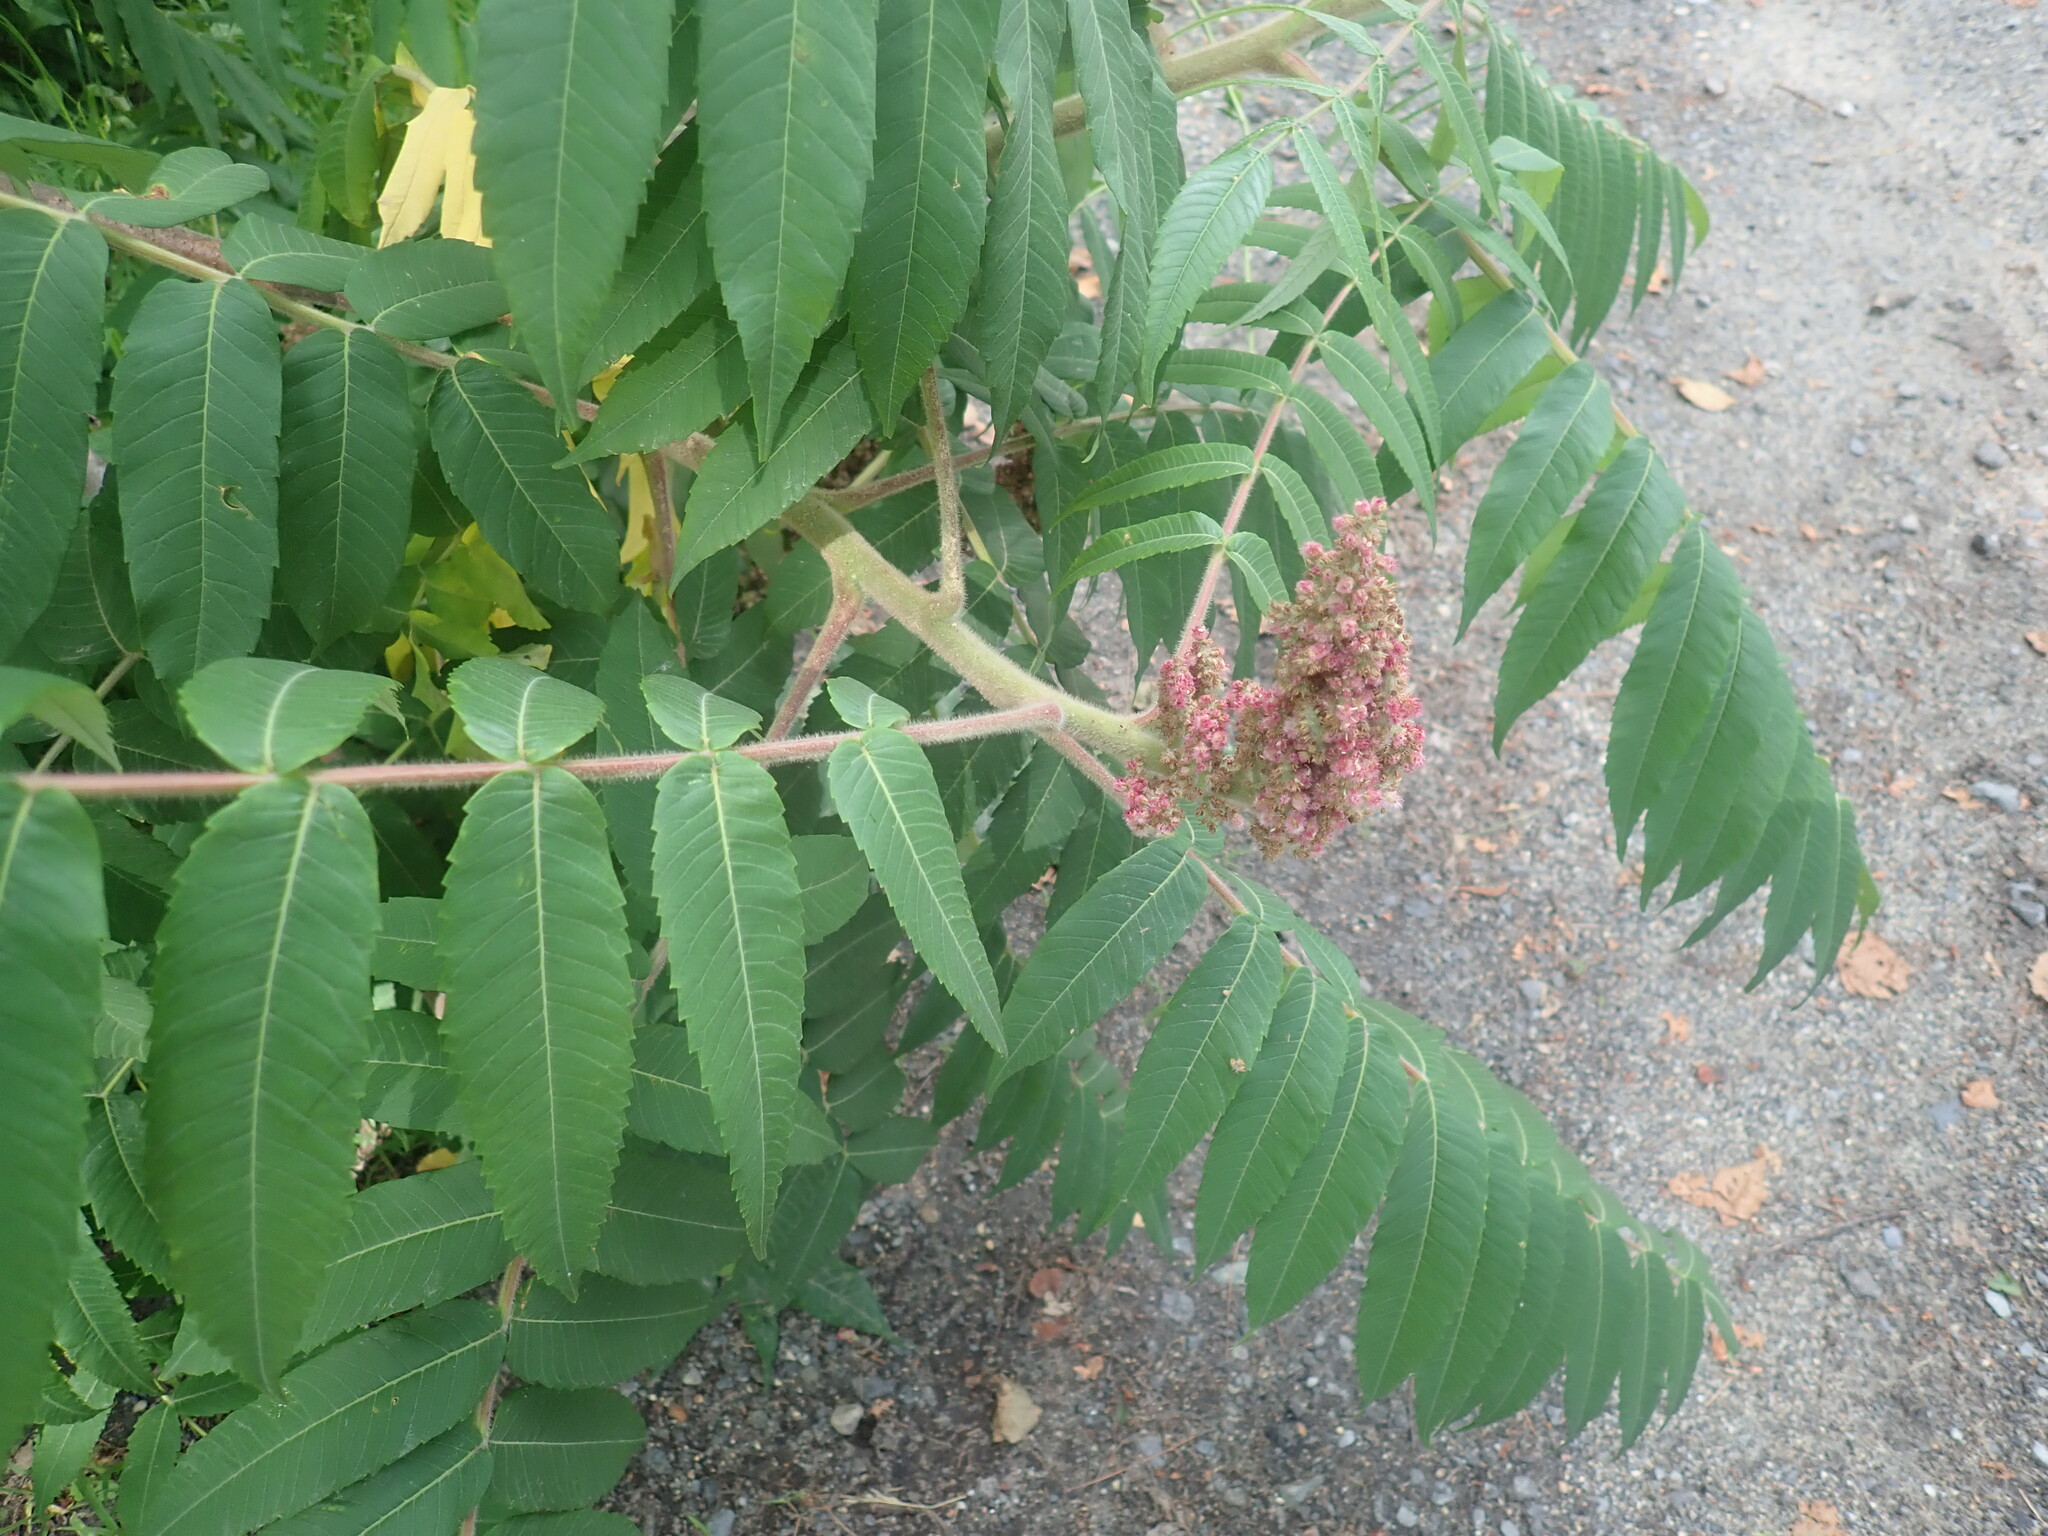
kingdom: Plantae
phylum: Tracheophyta
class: Magnoliopsida
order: Sapindales
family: Anacardiaceae
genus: Rhus
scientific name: Rhus typhina
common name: Staghorn sumac
